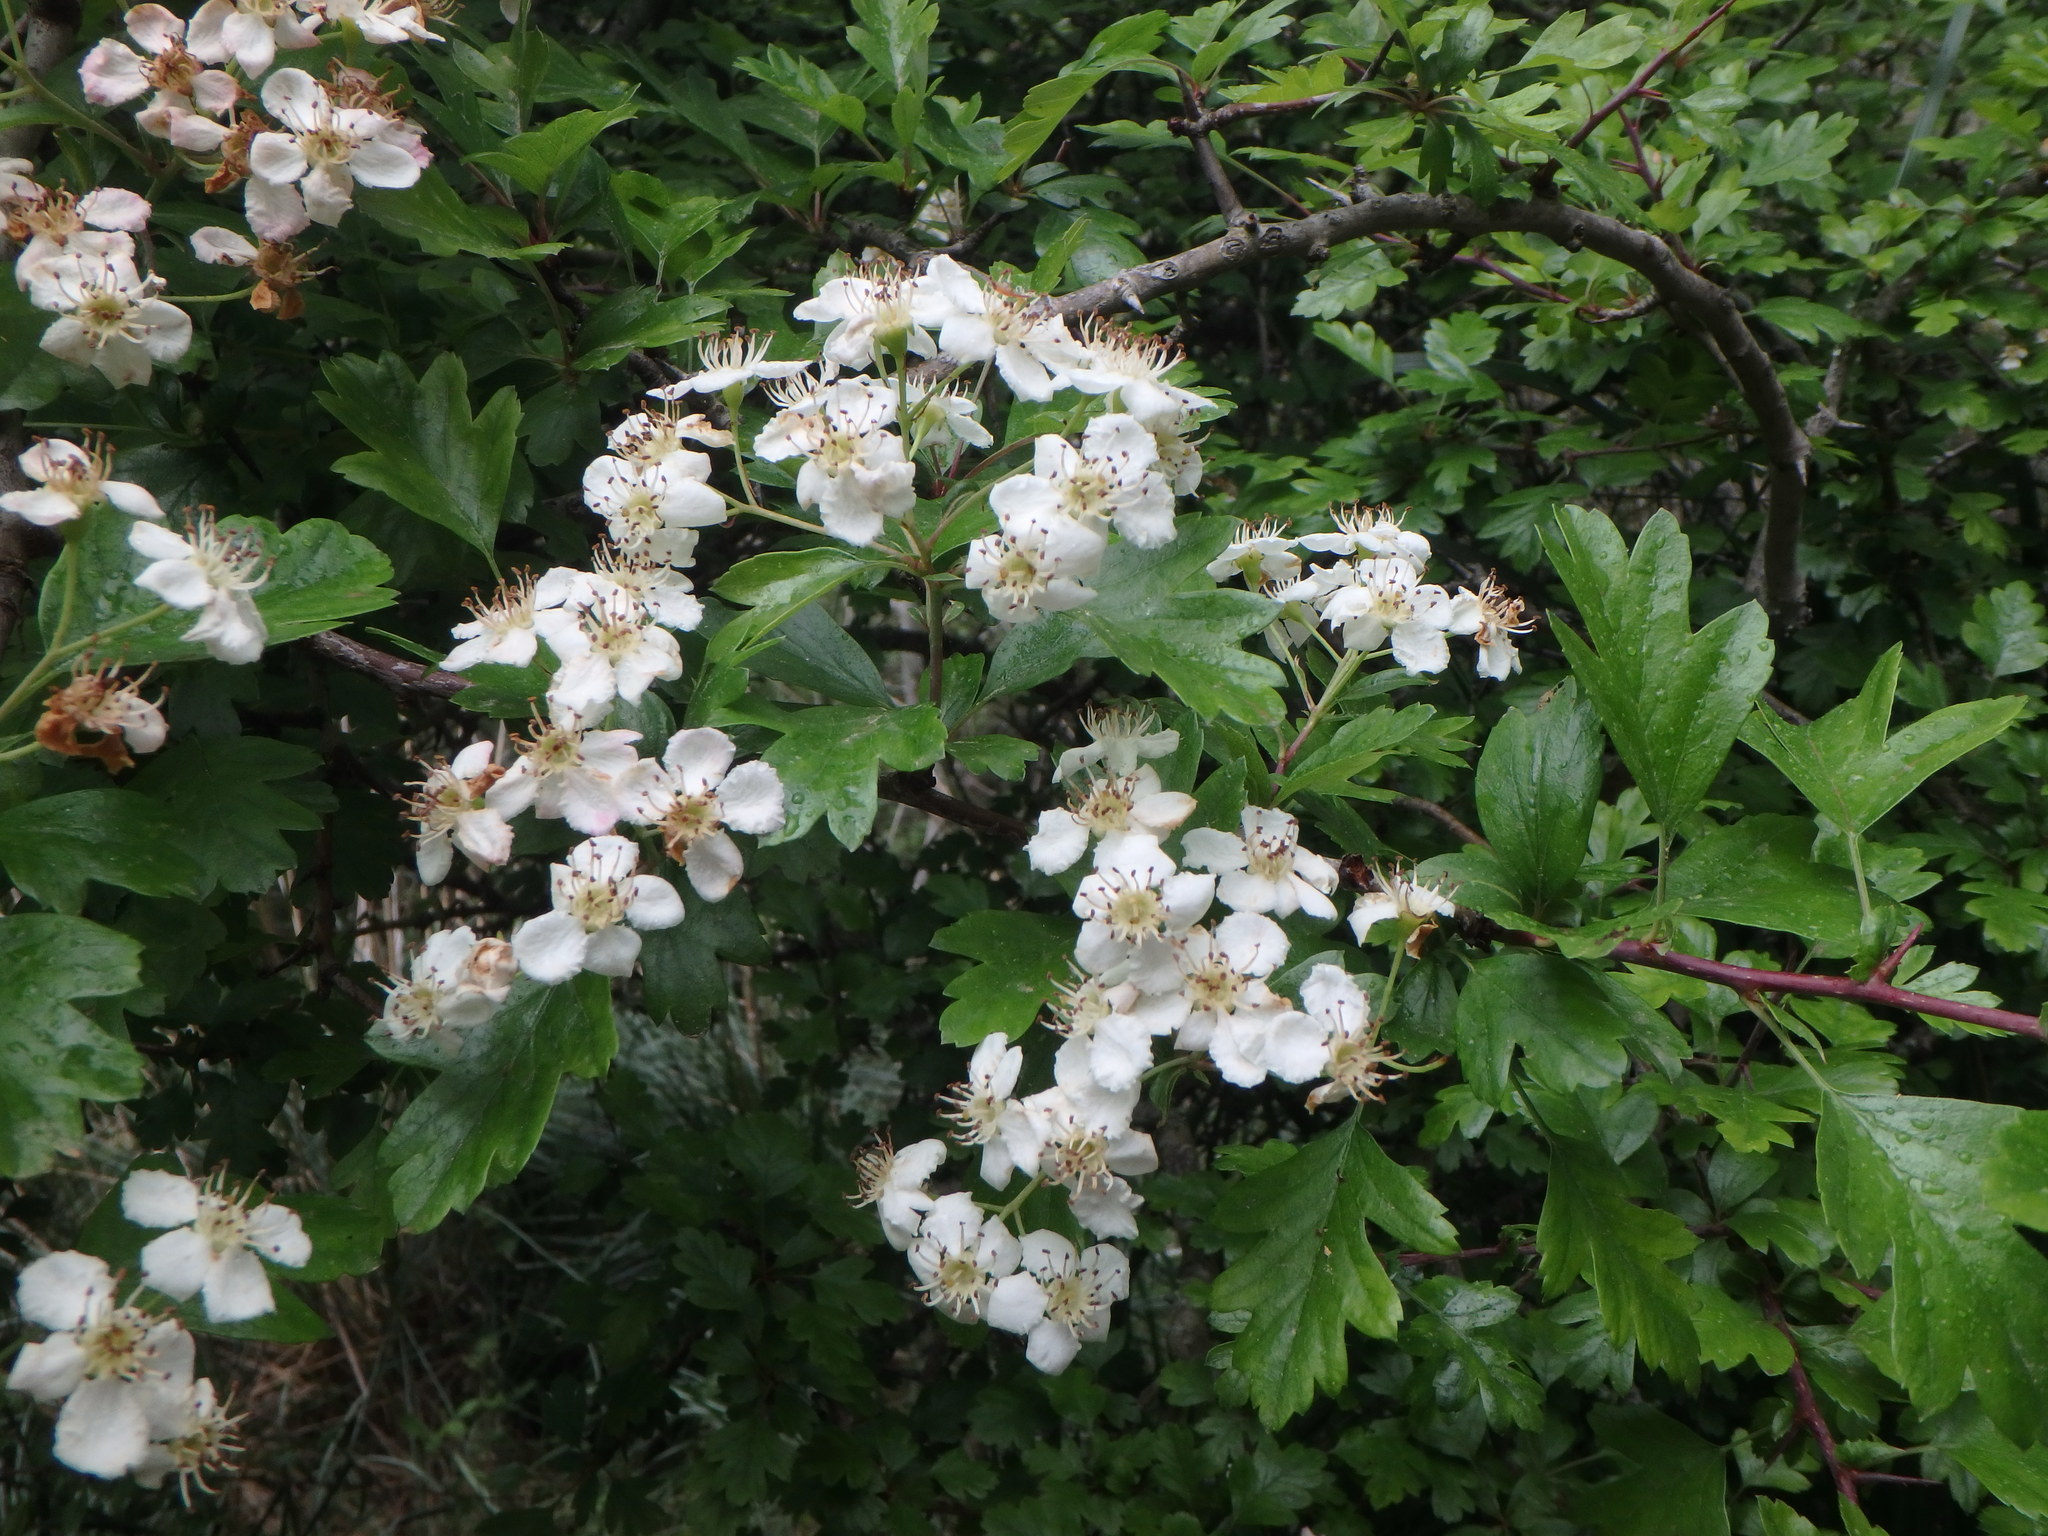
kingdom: Plantae
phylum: Tracheophyta
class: Magnoliopsida
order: Rosales
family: Rosaceae
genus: Crataegus
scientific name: Crataegus monogyna
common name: Hawthorn
